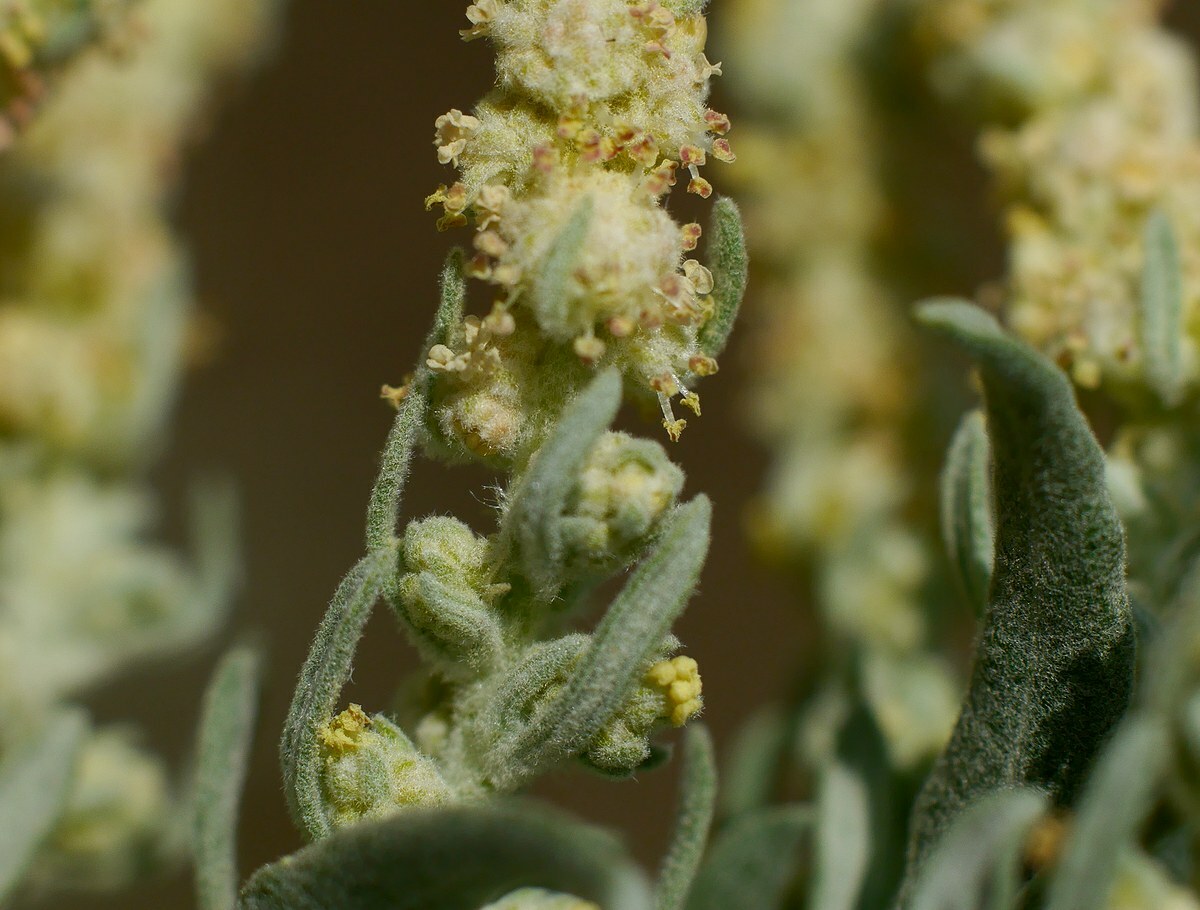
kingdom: Plantae
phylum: Tracheophyta
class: Magnoliopsida
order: Caryophyllales
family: Amaranthaceae
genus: Krascheninnikovia
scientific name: Krascheninnikovia ceratoides
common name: Pamirian winterfat
